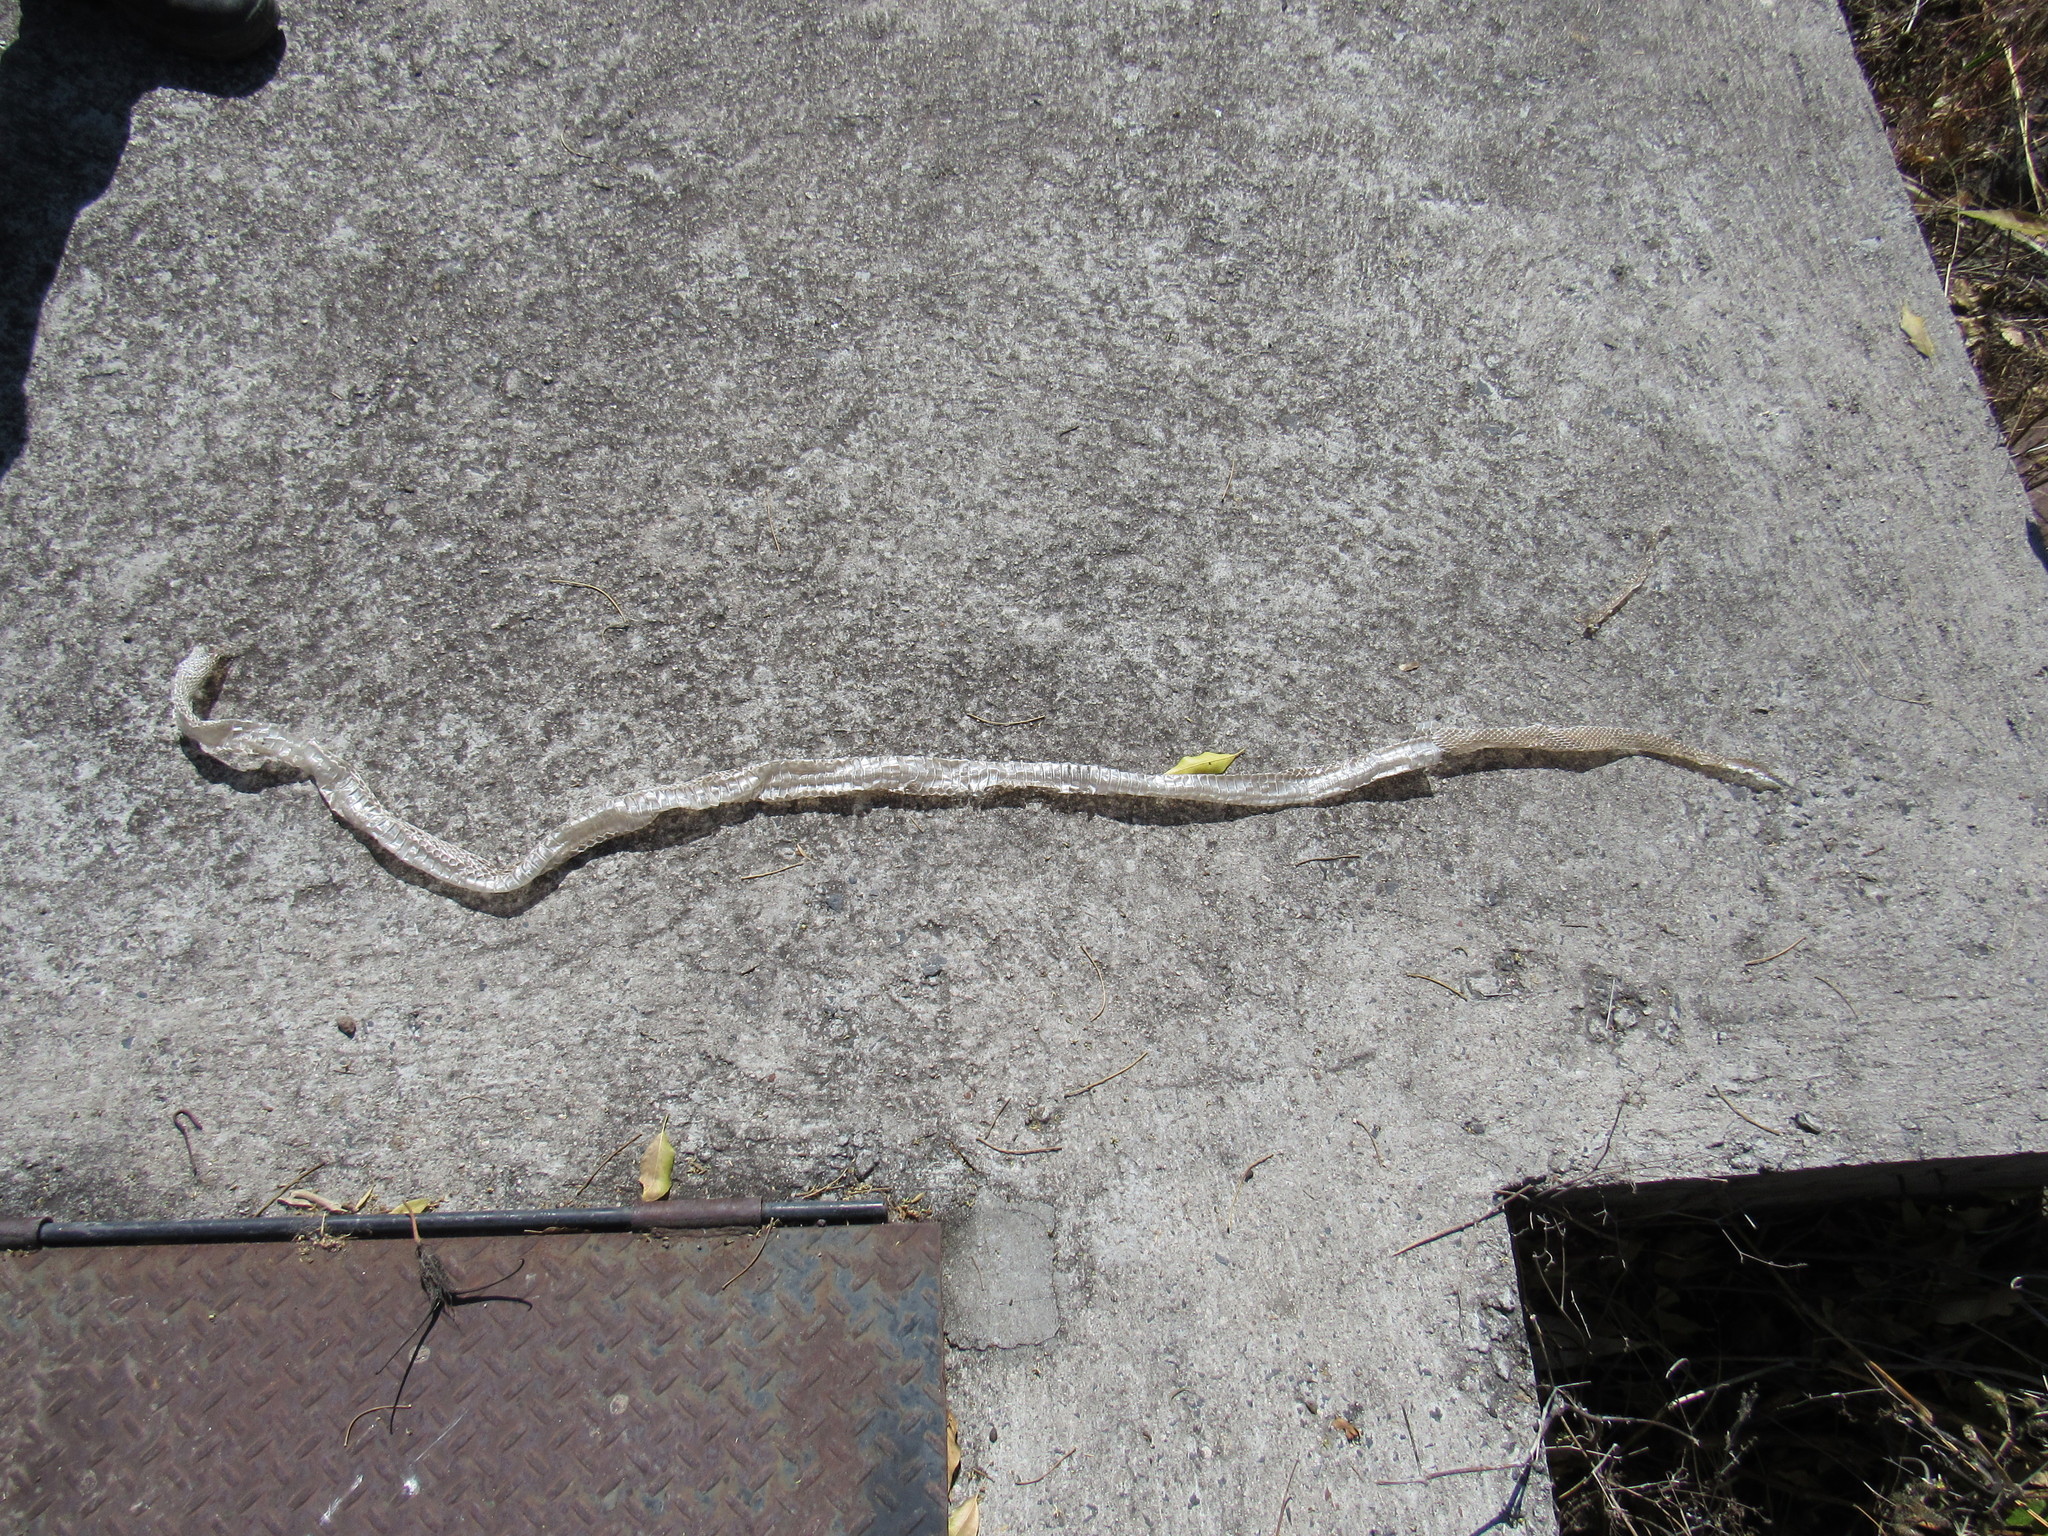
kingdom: Animalia
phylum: Chordata
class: Squamata
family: Colubridae
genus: Masticophis
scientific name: Masticophis mentovarius
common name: Neotropical whip snake
